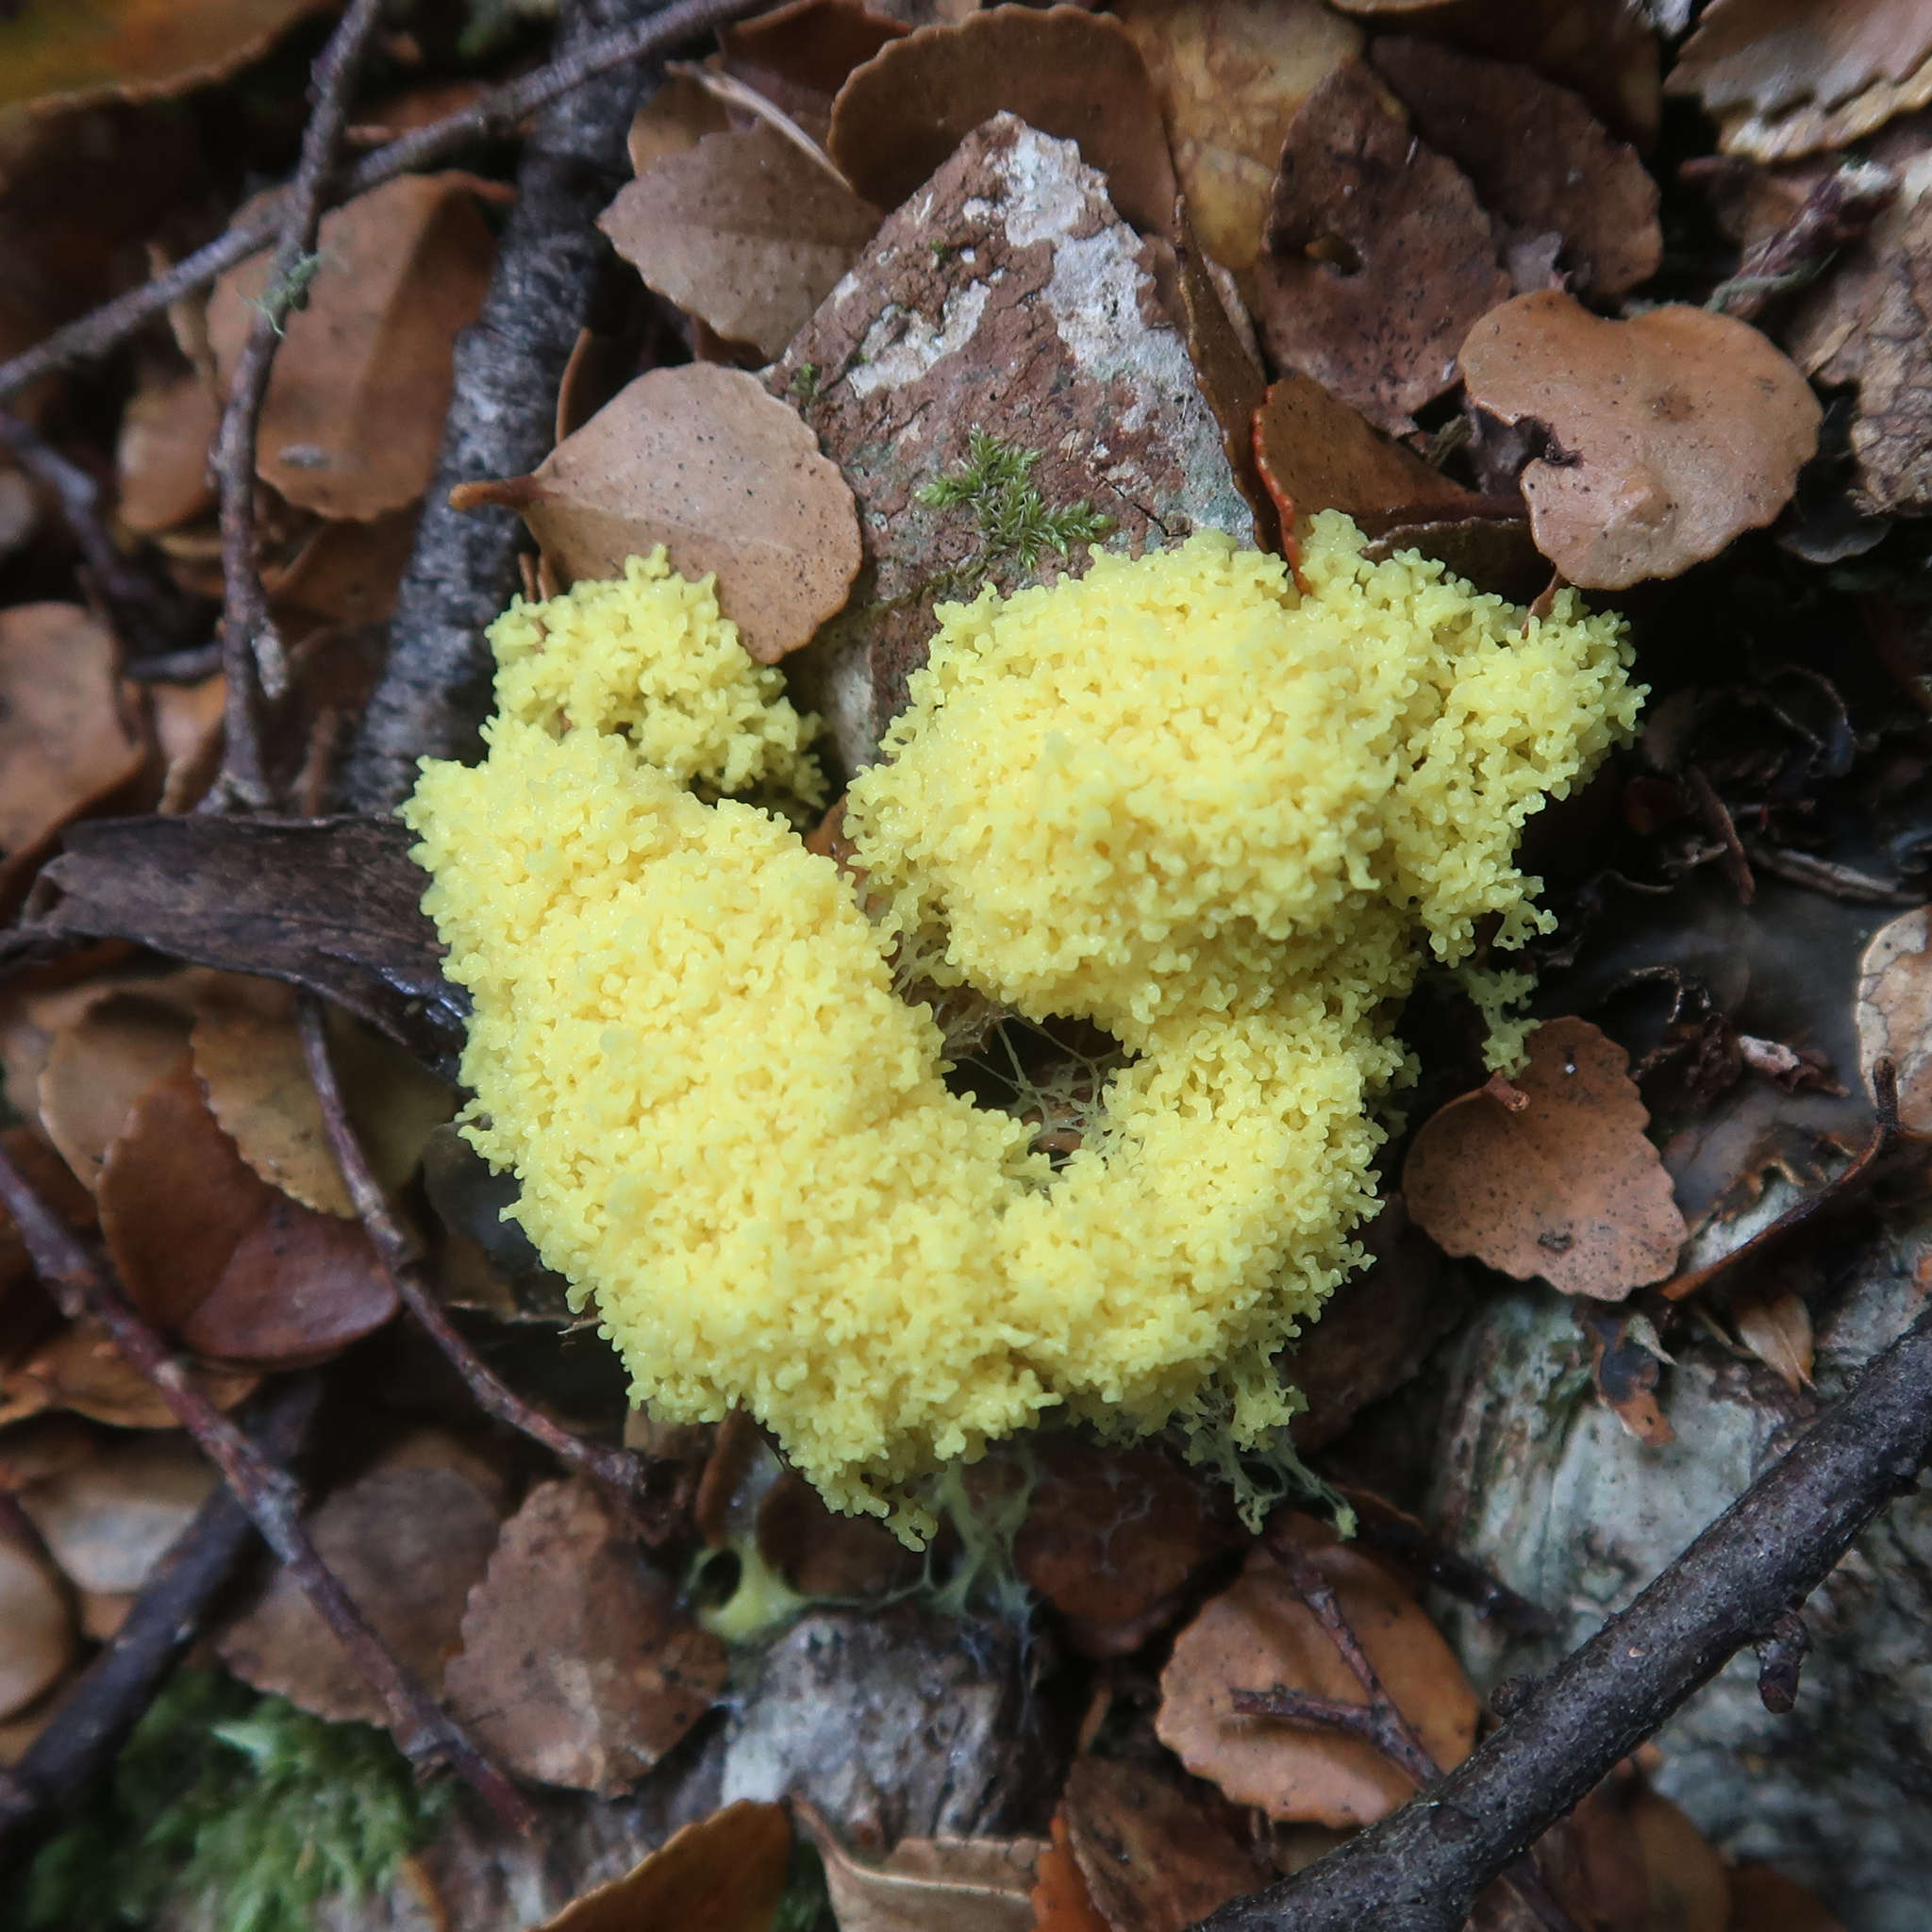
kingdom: Protozoa
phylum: Mycetozoa
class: Myxomycetes
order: Physarales
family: Physaraceae
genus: Fuligo
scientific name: Fuligo septica
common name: Dog vomit slime mold
